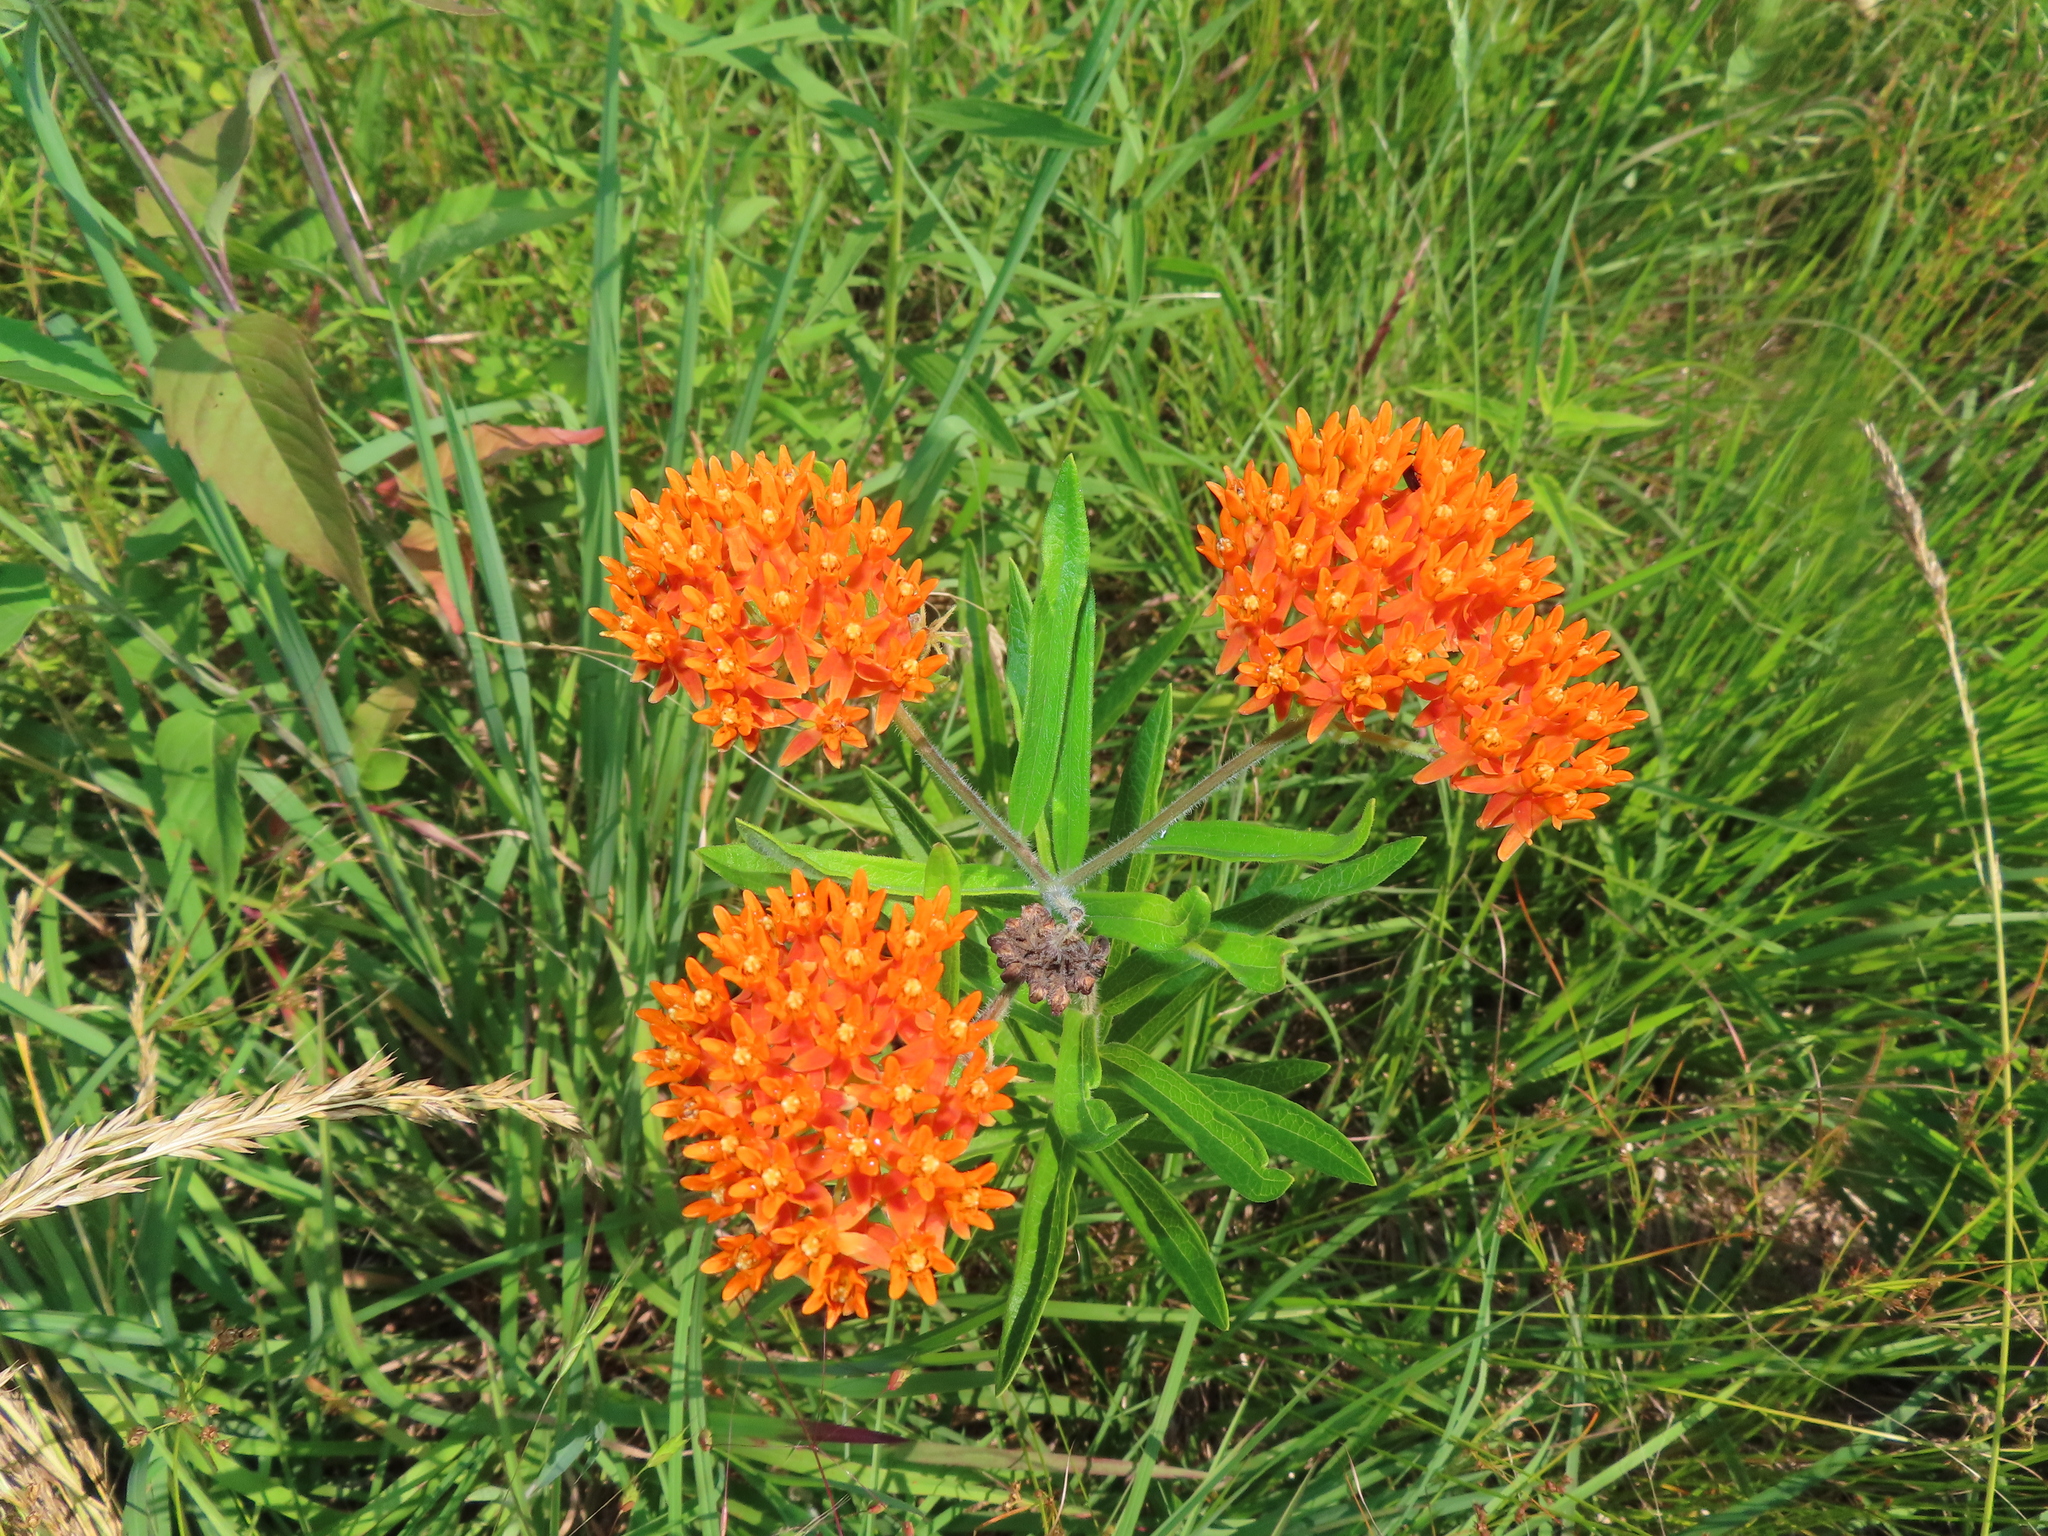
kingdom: Plantae
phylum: Tracheophyta
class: Magnoliopsida
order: Gentianales
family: Apocynaceae
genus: Asclepias
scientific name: Asclepias tuberosa
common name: Butterfly milkweed
